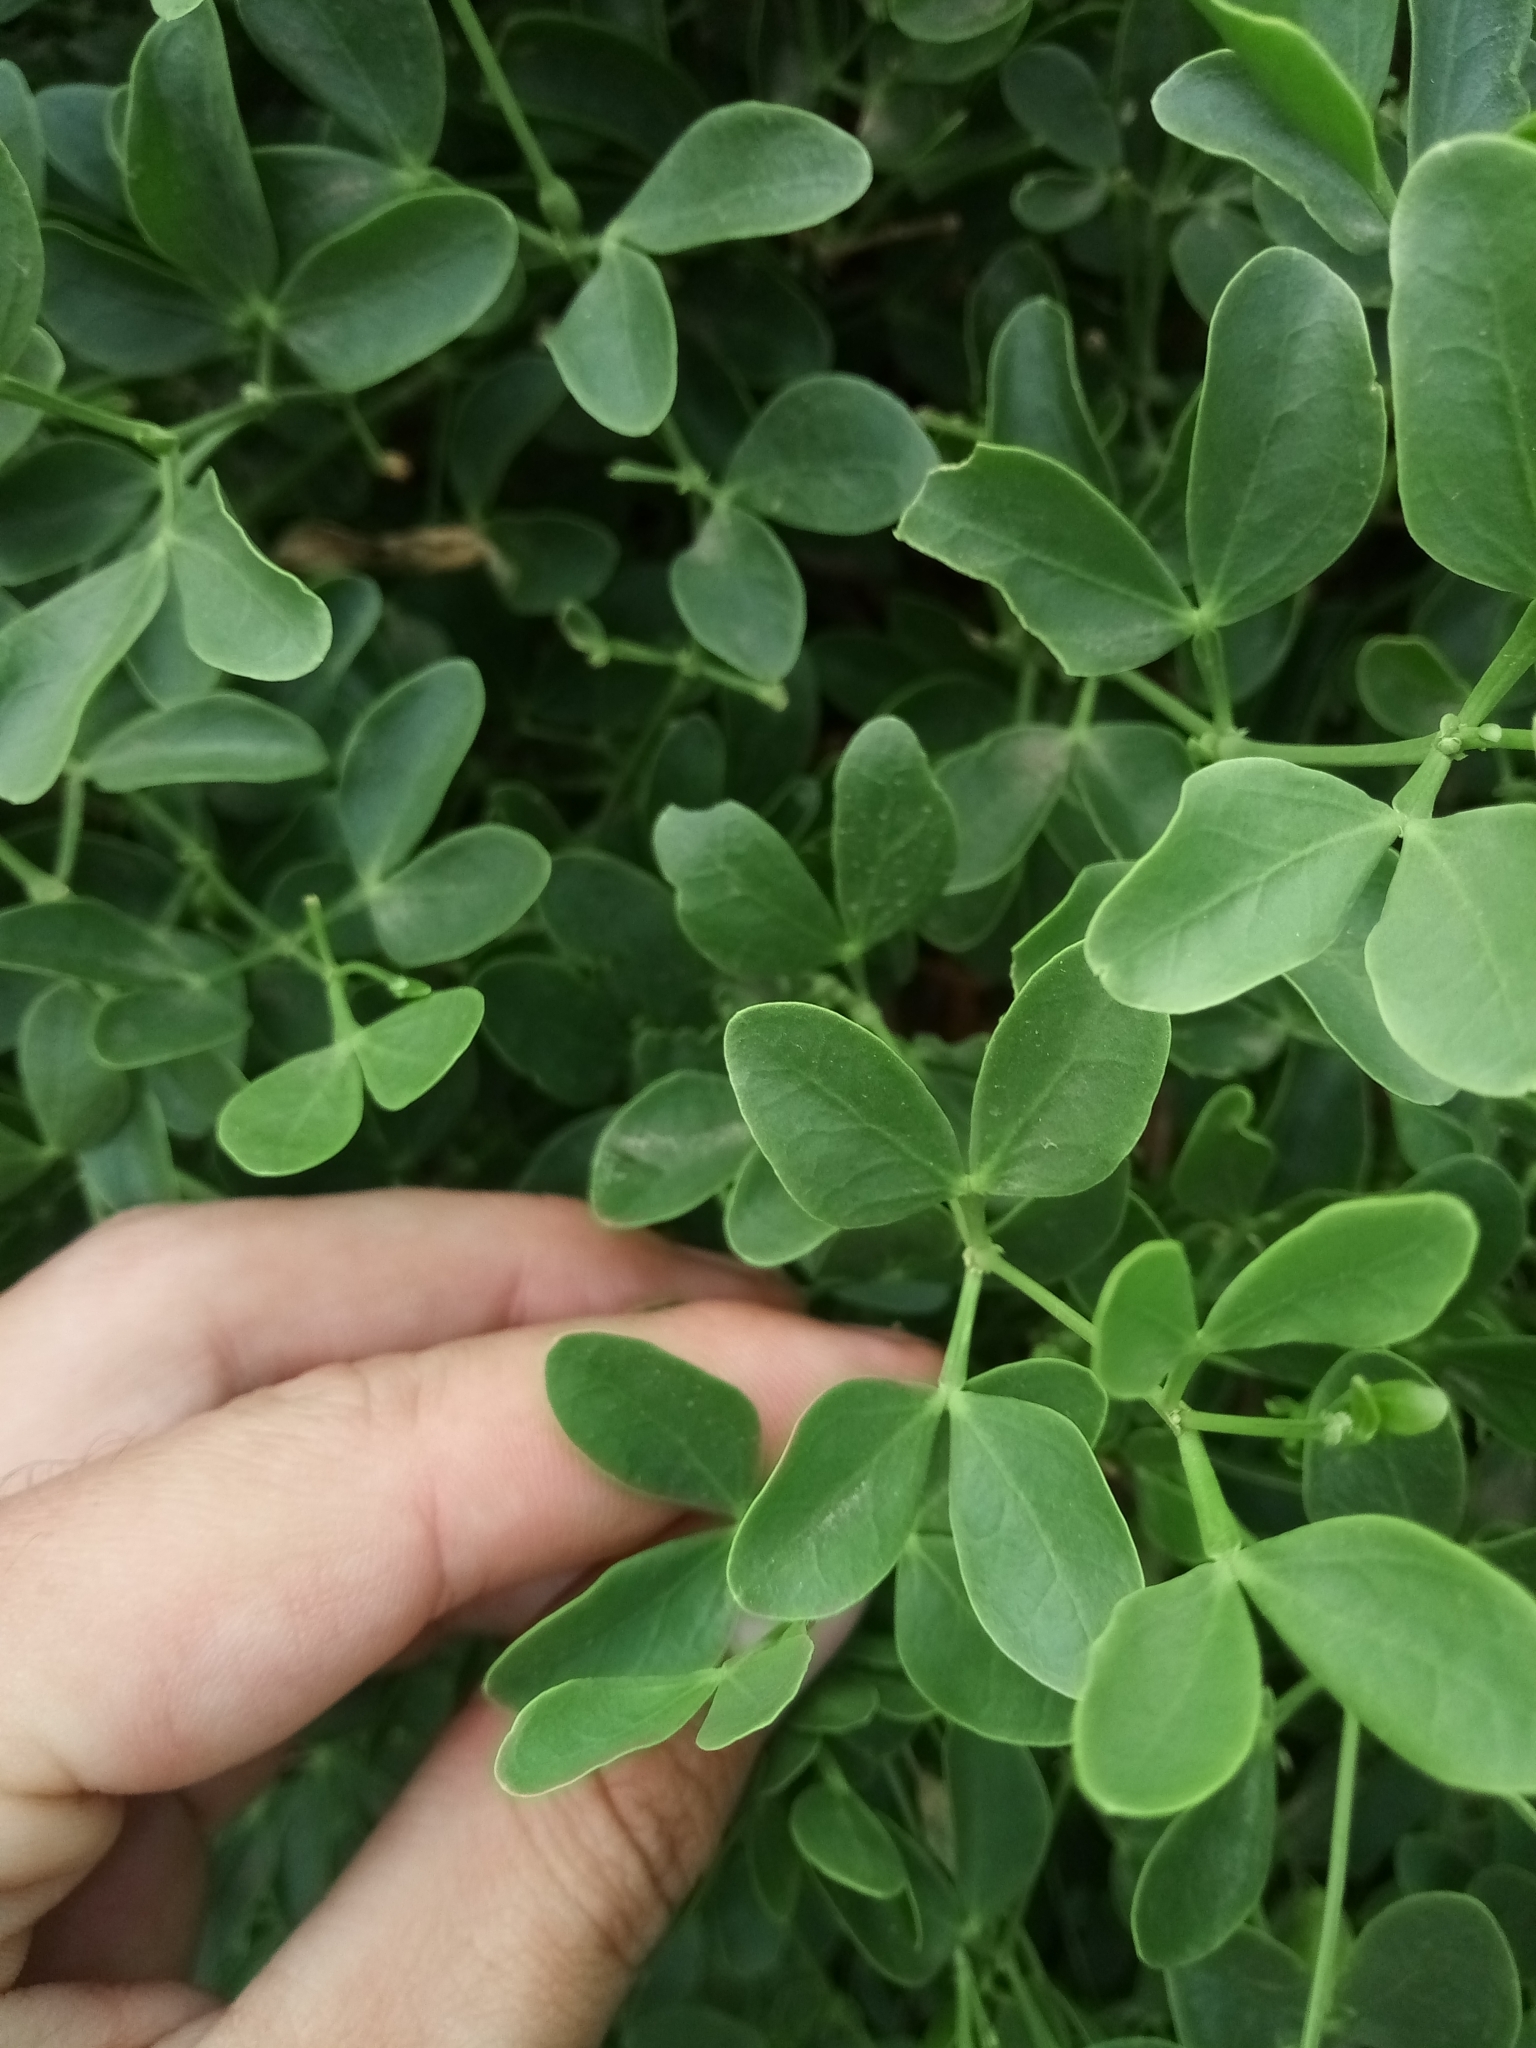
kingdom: Plantae
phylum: Tracheophyta
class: Magnoliopsida
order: Zygophyllales
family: Zygophyllaceae
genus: Zygophyllum
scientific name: Zygophyllum fabago
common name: Syrian beancaper
